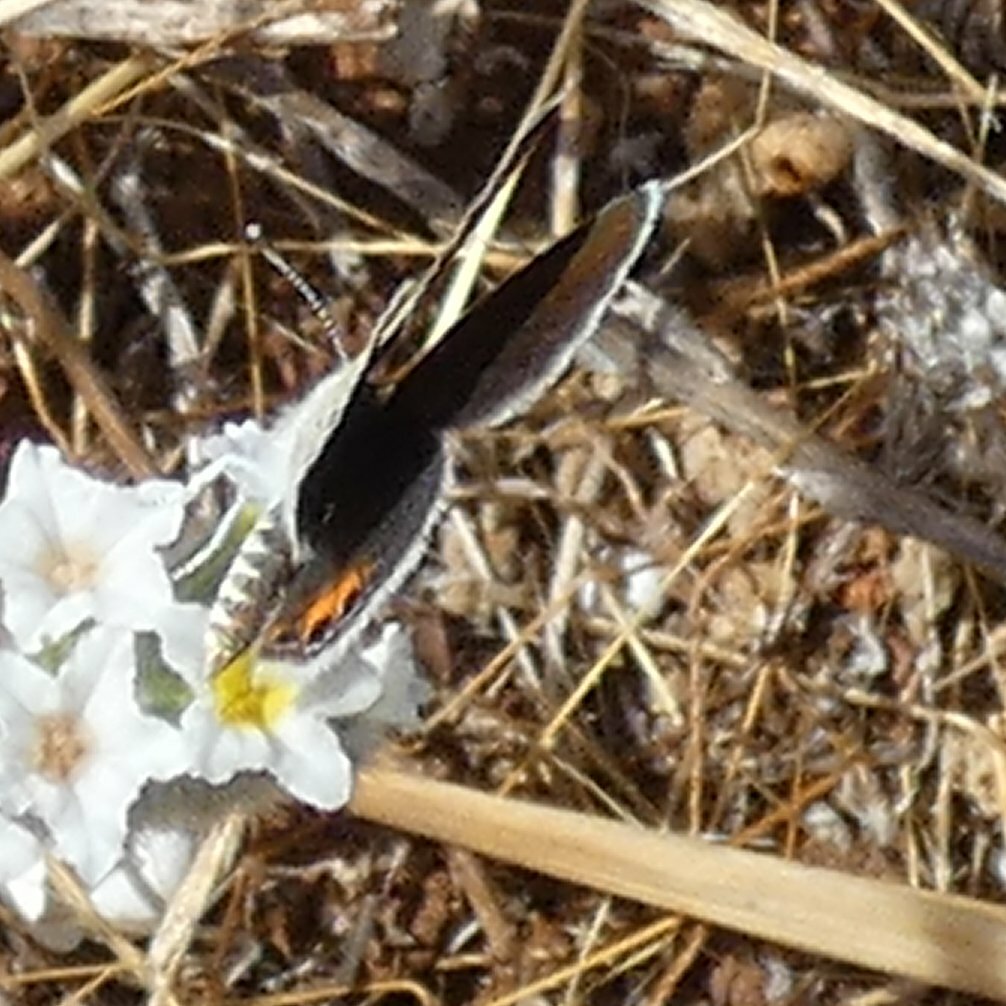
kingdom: Animalia
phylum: Arthropoda
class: Insecta
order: Lepidoptera
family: Lycaenidae
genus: Freyeria
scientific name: Freyeria trochylus
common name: Grass jewel
